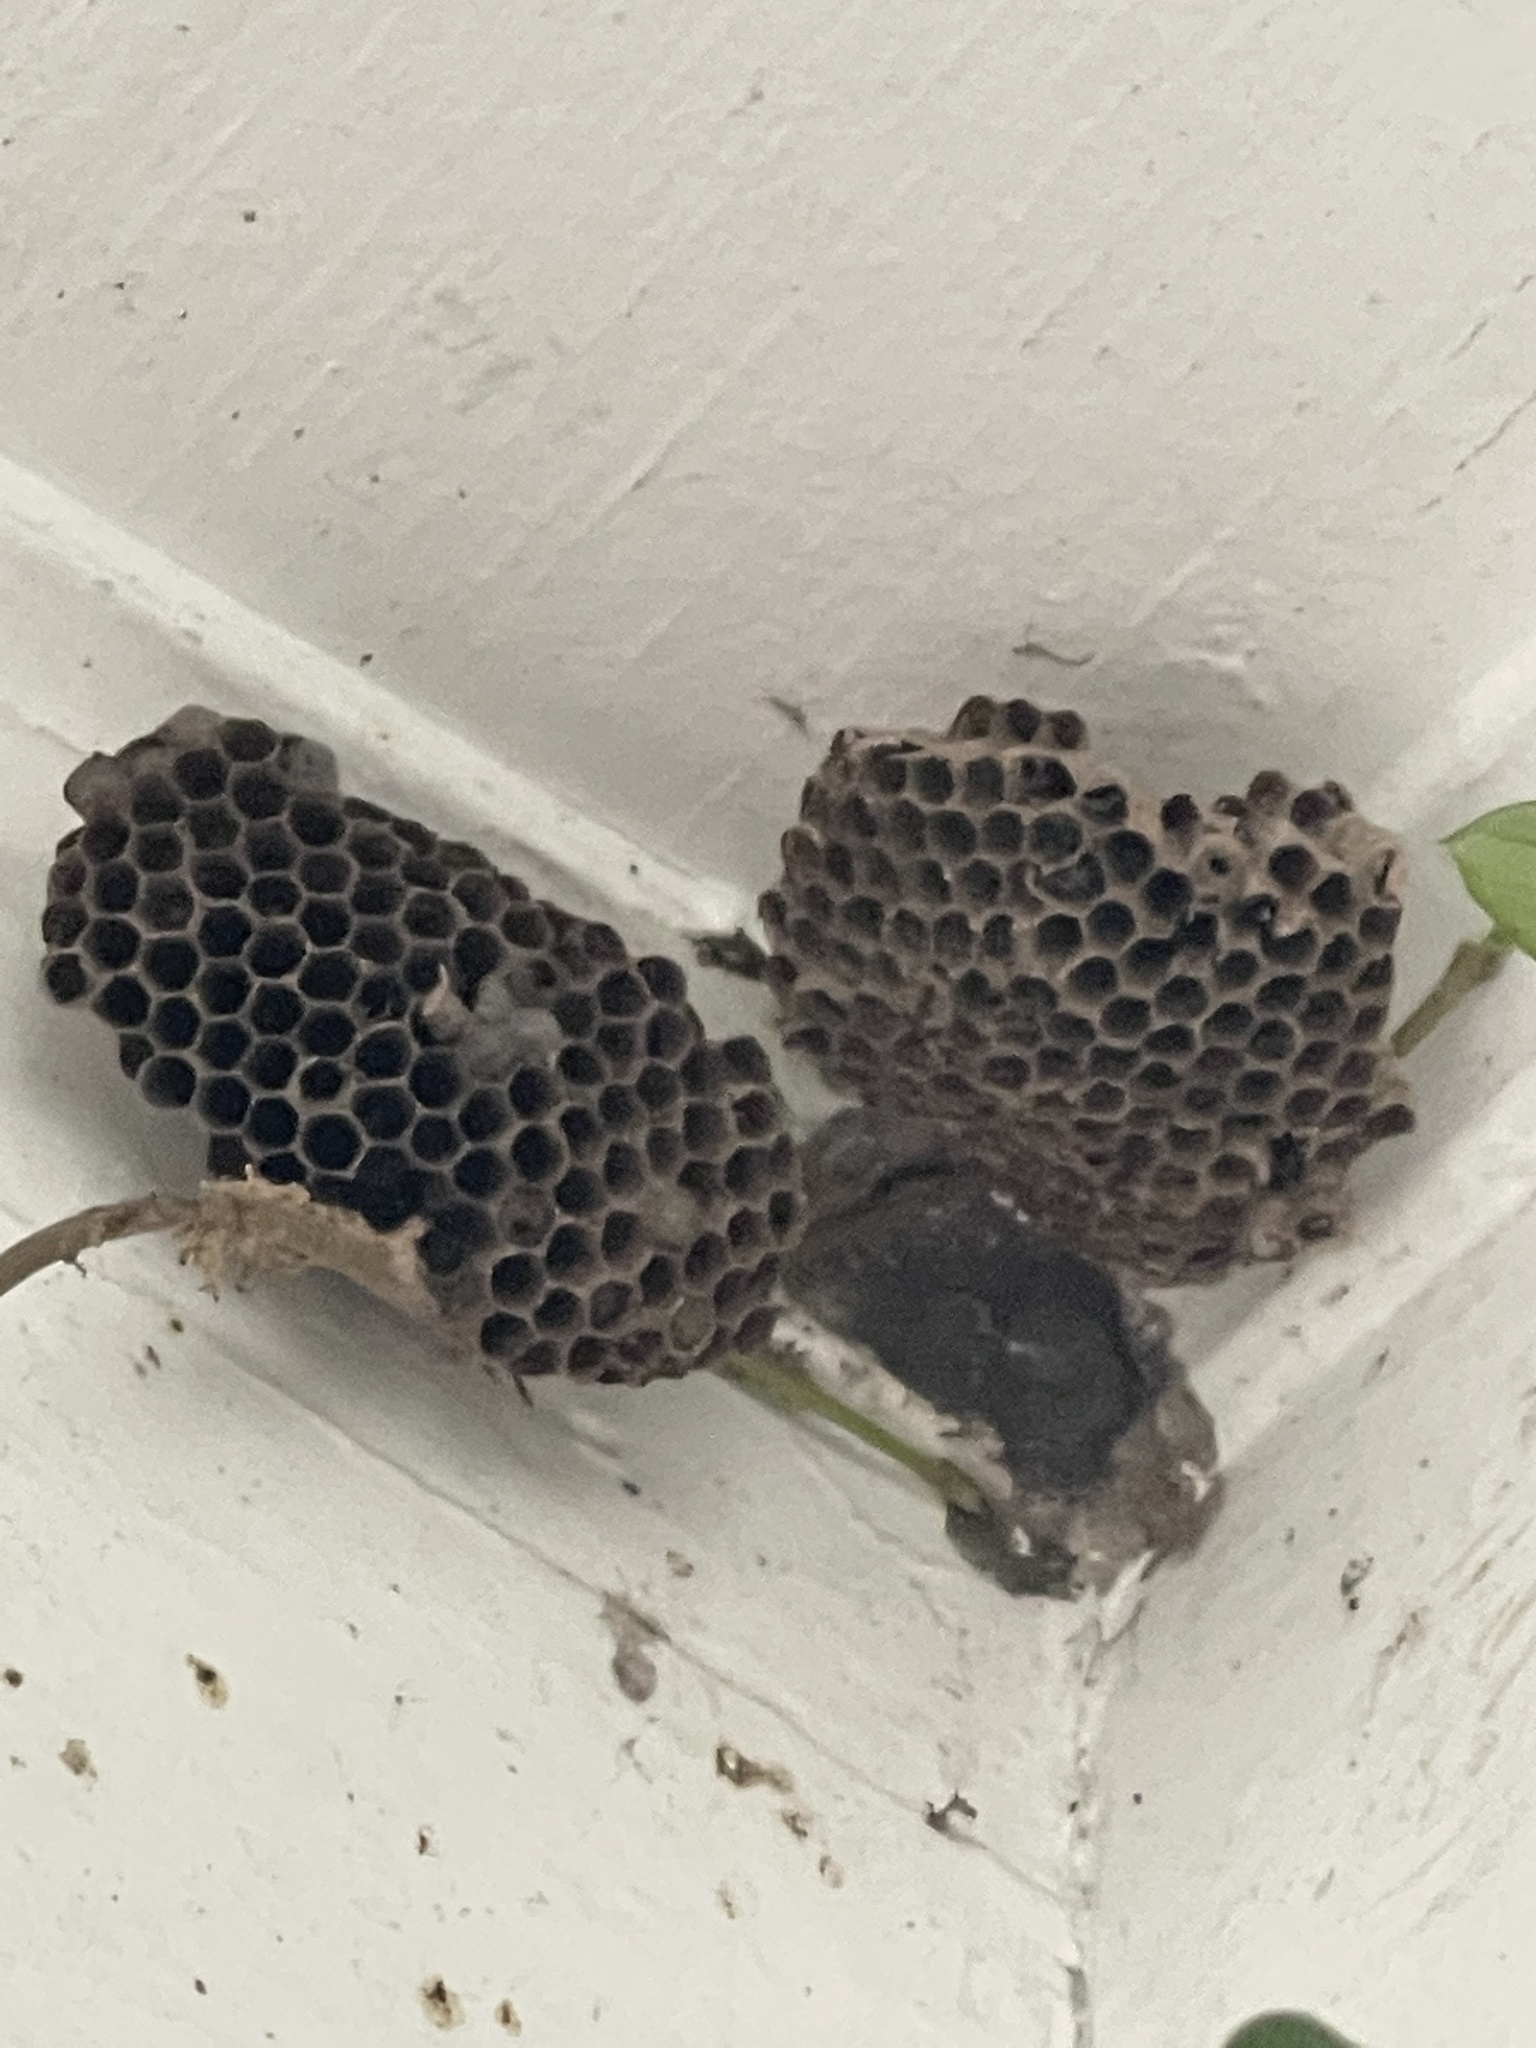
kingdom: Animalia
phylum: Arthropoda
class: Insecta
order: Hymenoptera
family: Eumenidae
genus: Polistes
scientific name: Polistes
